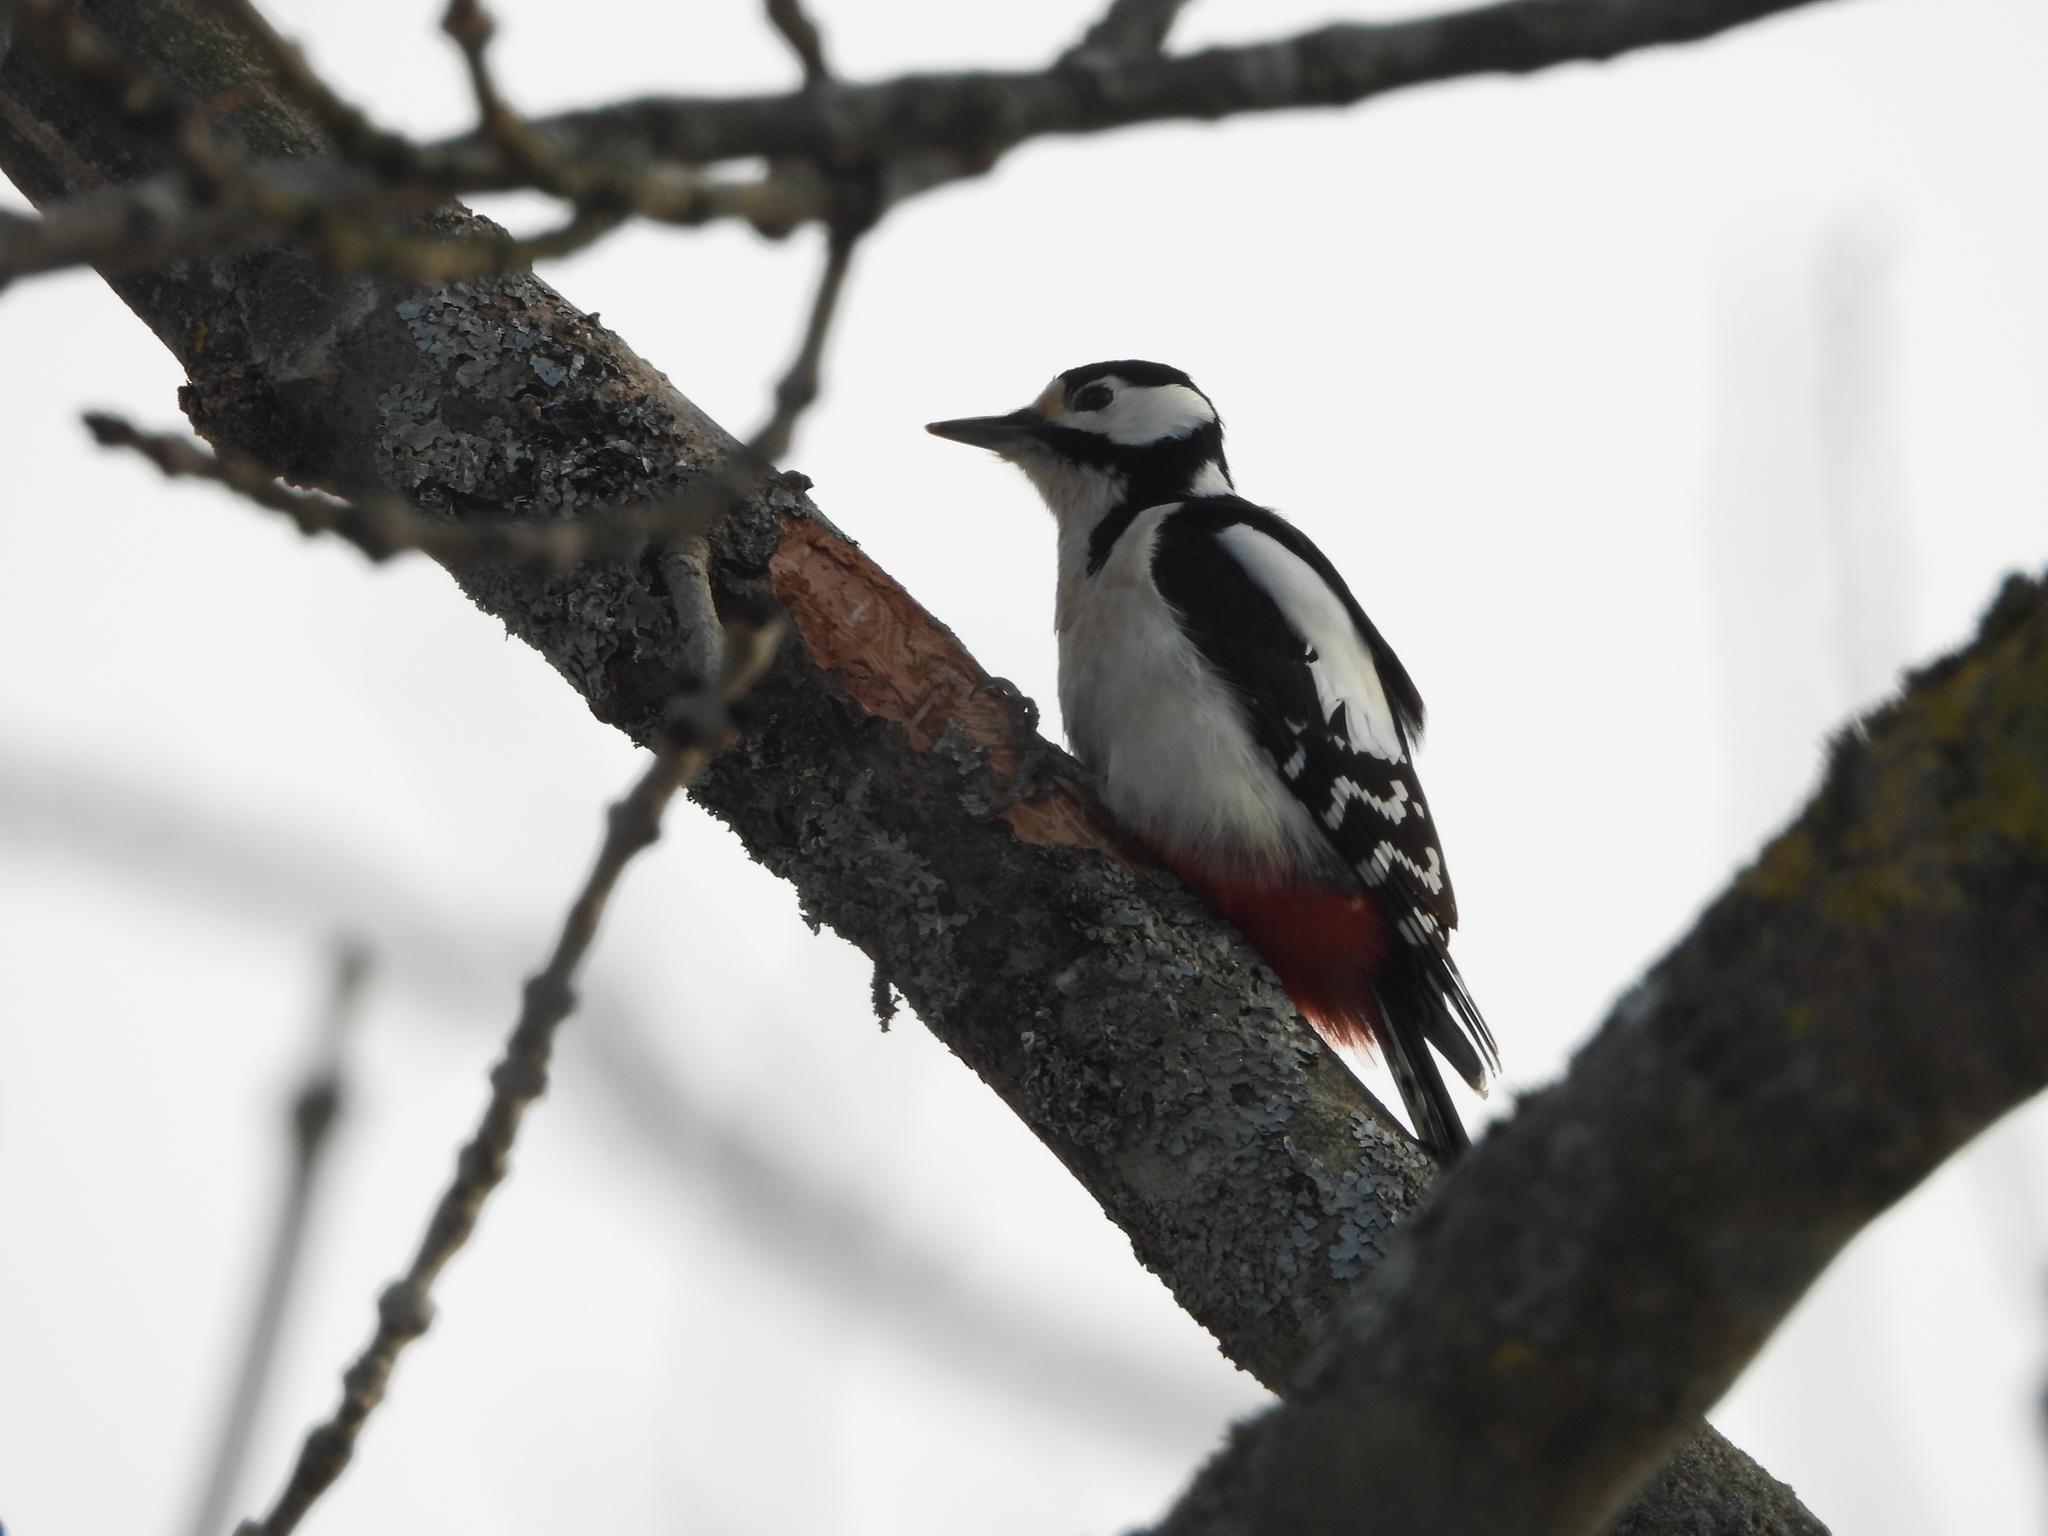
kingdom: Animalia
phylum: Chordata
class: Aves
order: Piciformes
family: Picidae
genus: Dendrocopos
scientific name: Dendrocopos major
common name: Great spotted woodpecker
